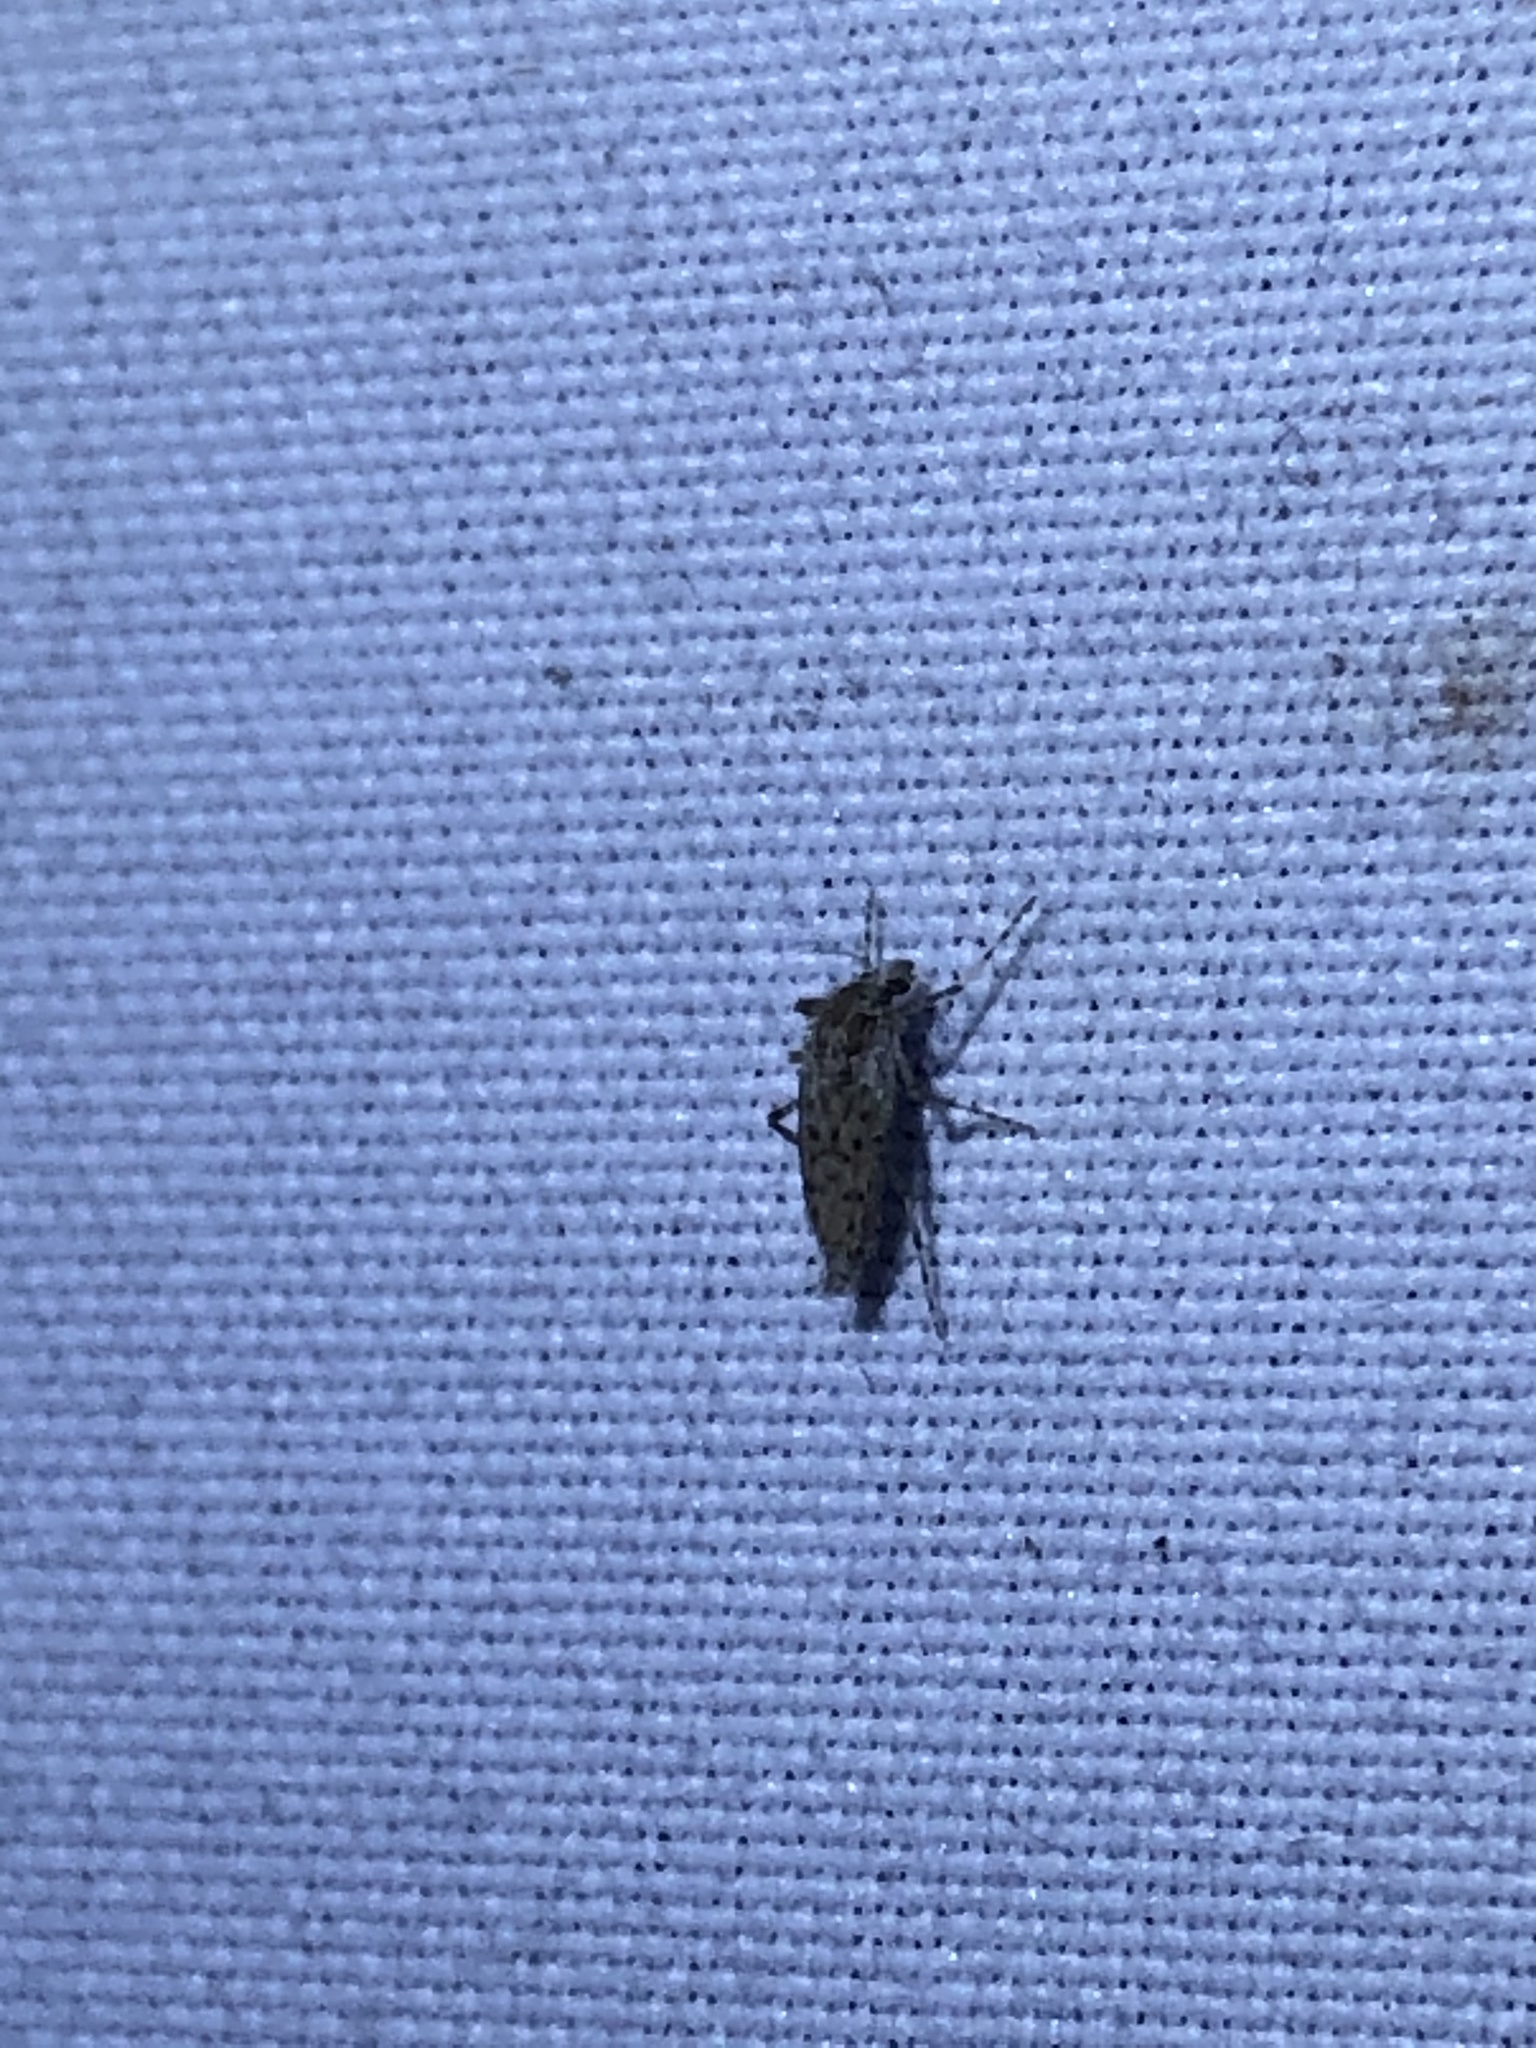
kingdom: Animalia
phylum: Arthropoda
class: Insecta
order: Diptera
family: Chaoboridae
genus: Chaoborus
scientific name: Chaoborus punctipennis
